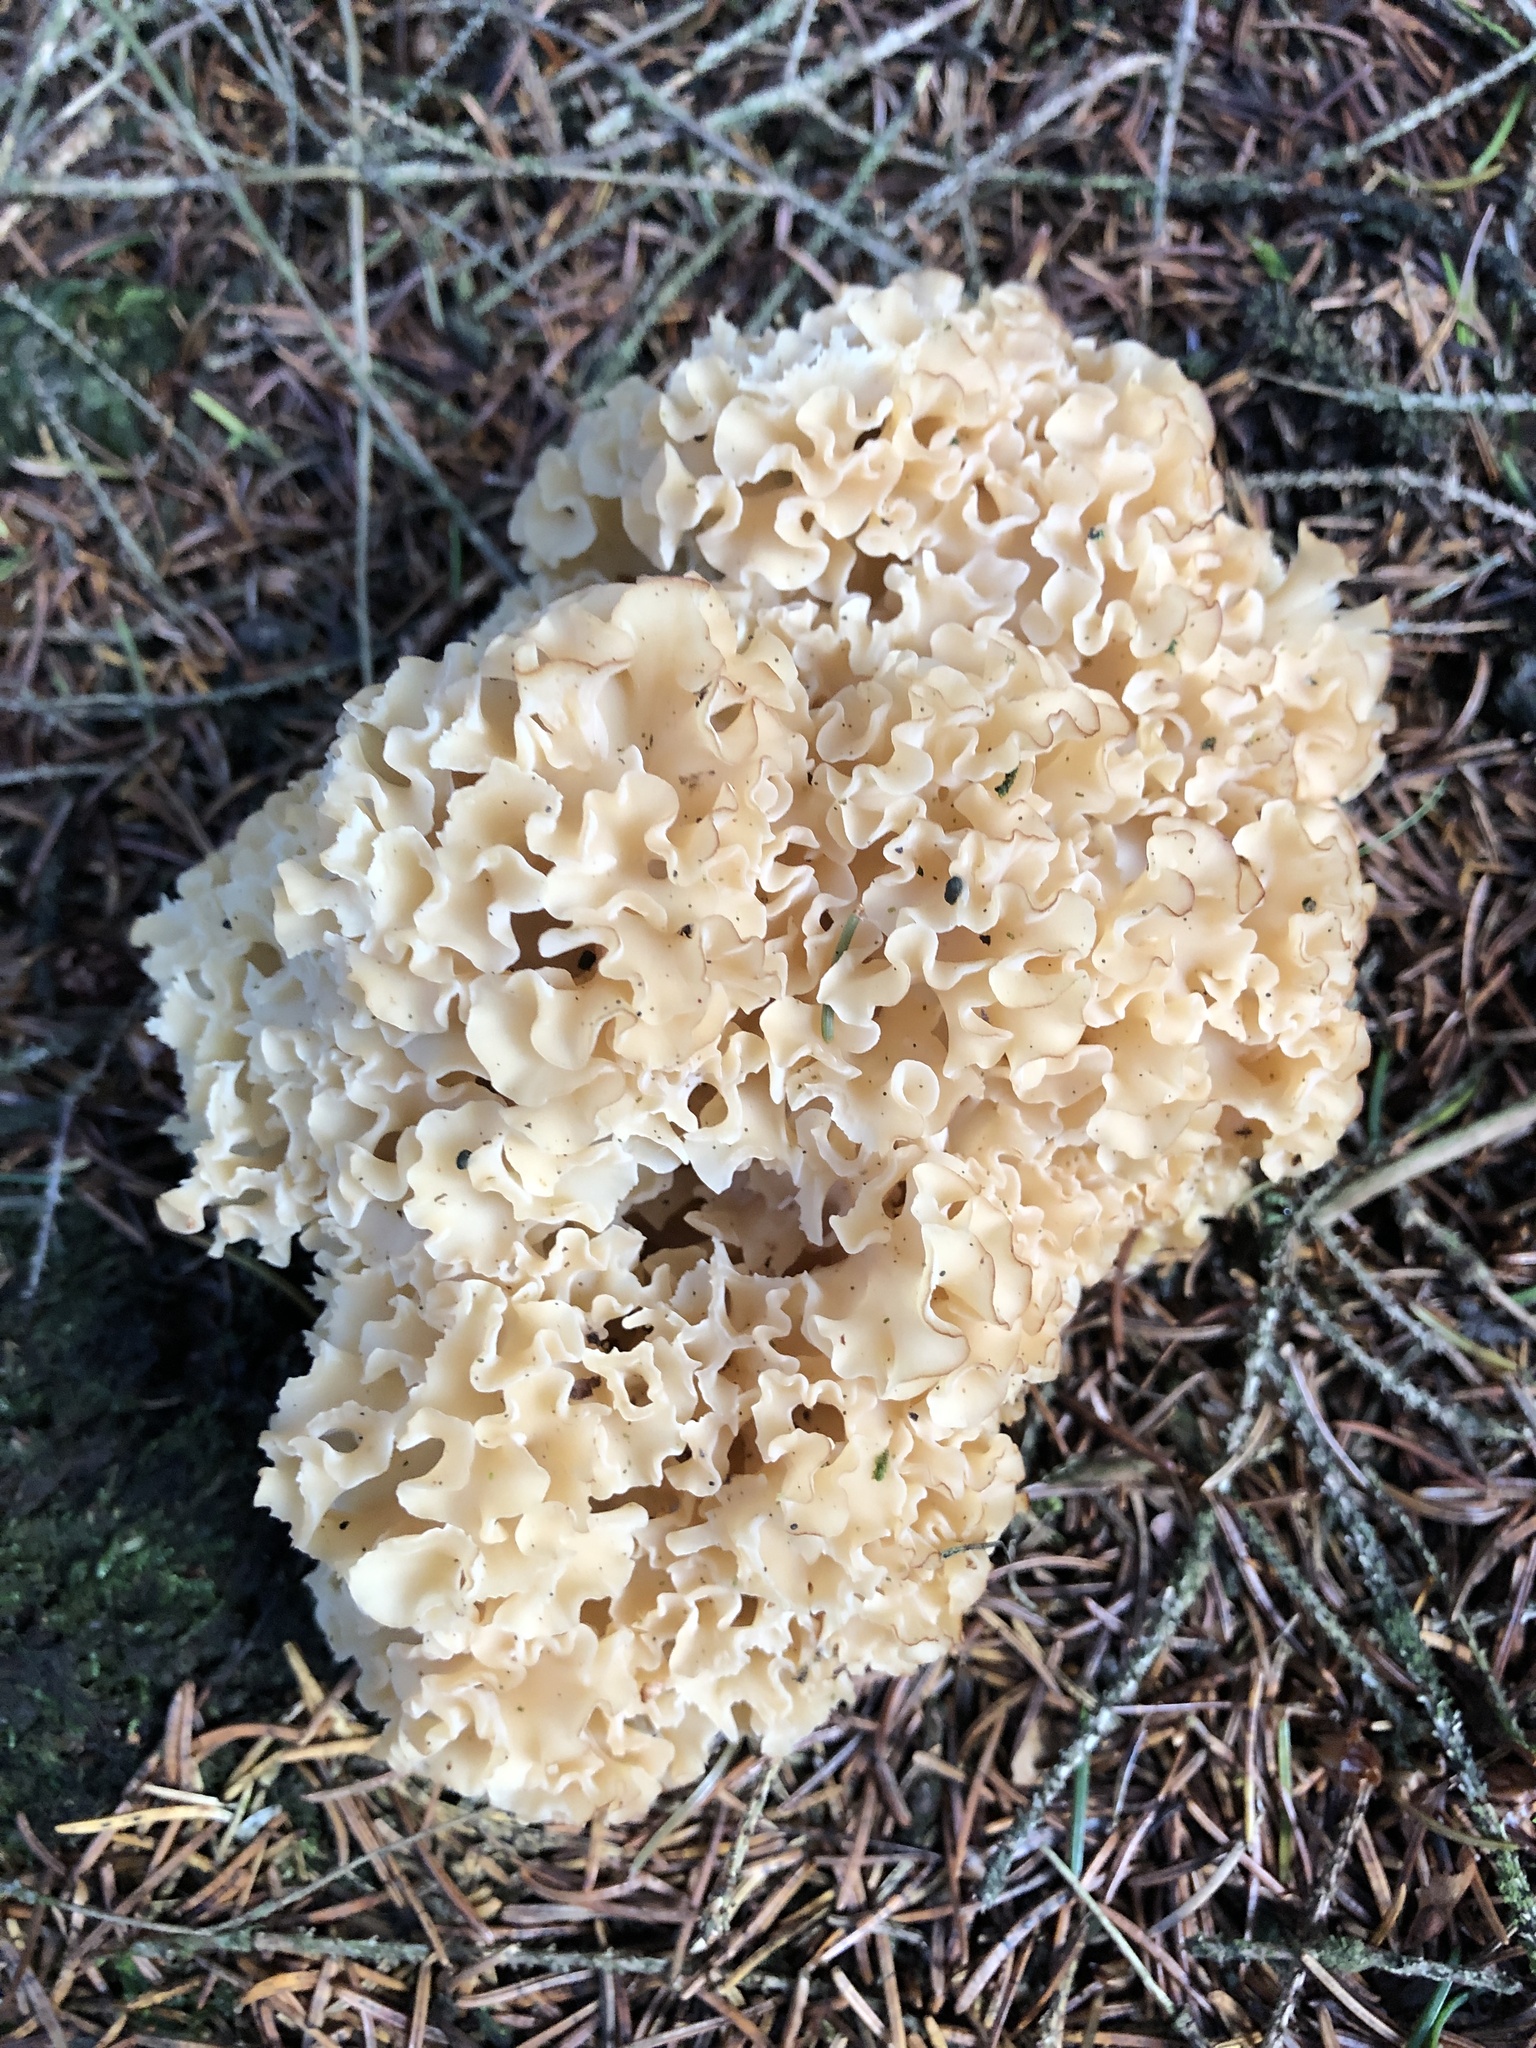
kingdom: Fungi
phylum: Basidiomycota
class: Agaricomycetes
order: Polyporales
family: Sparassidaceae
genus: Sparassis
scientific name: Sparassis crispa
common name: Brain fungus
